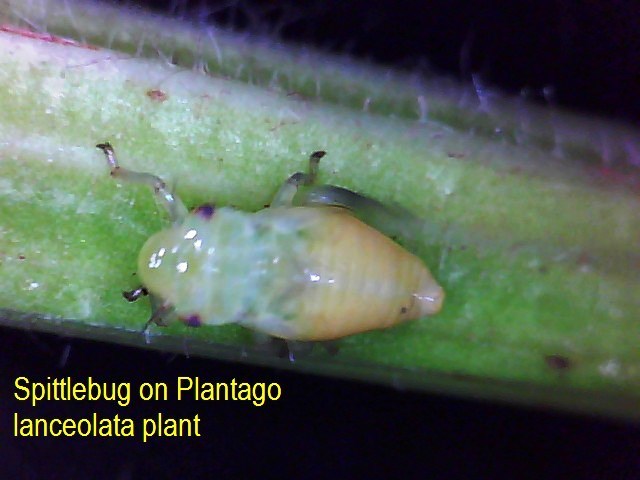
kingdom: Plantae
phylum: Tracheophyta
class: Magnoliopsida
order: Lamiales
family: Plantaginaceae
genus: Plantago
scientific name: Plantago lanceolata
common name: Ribwort plantain
